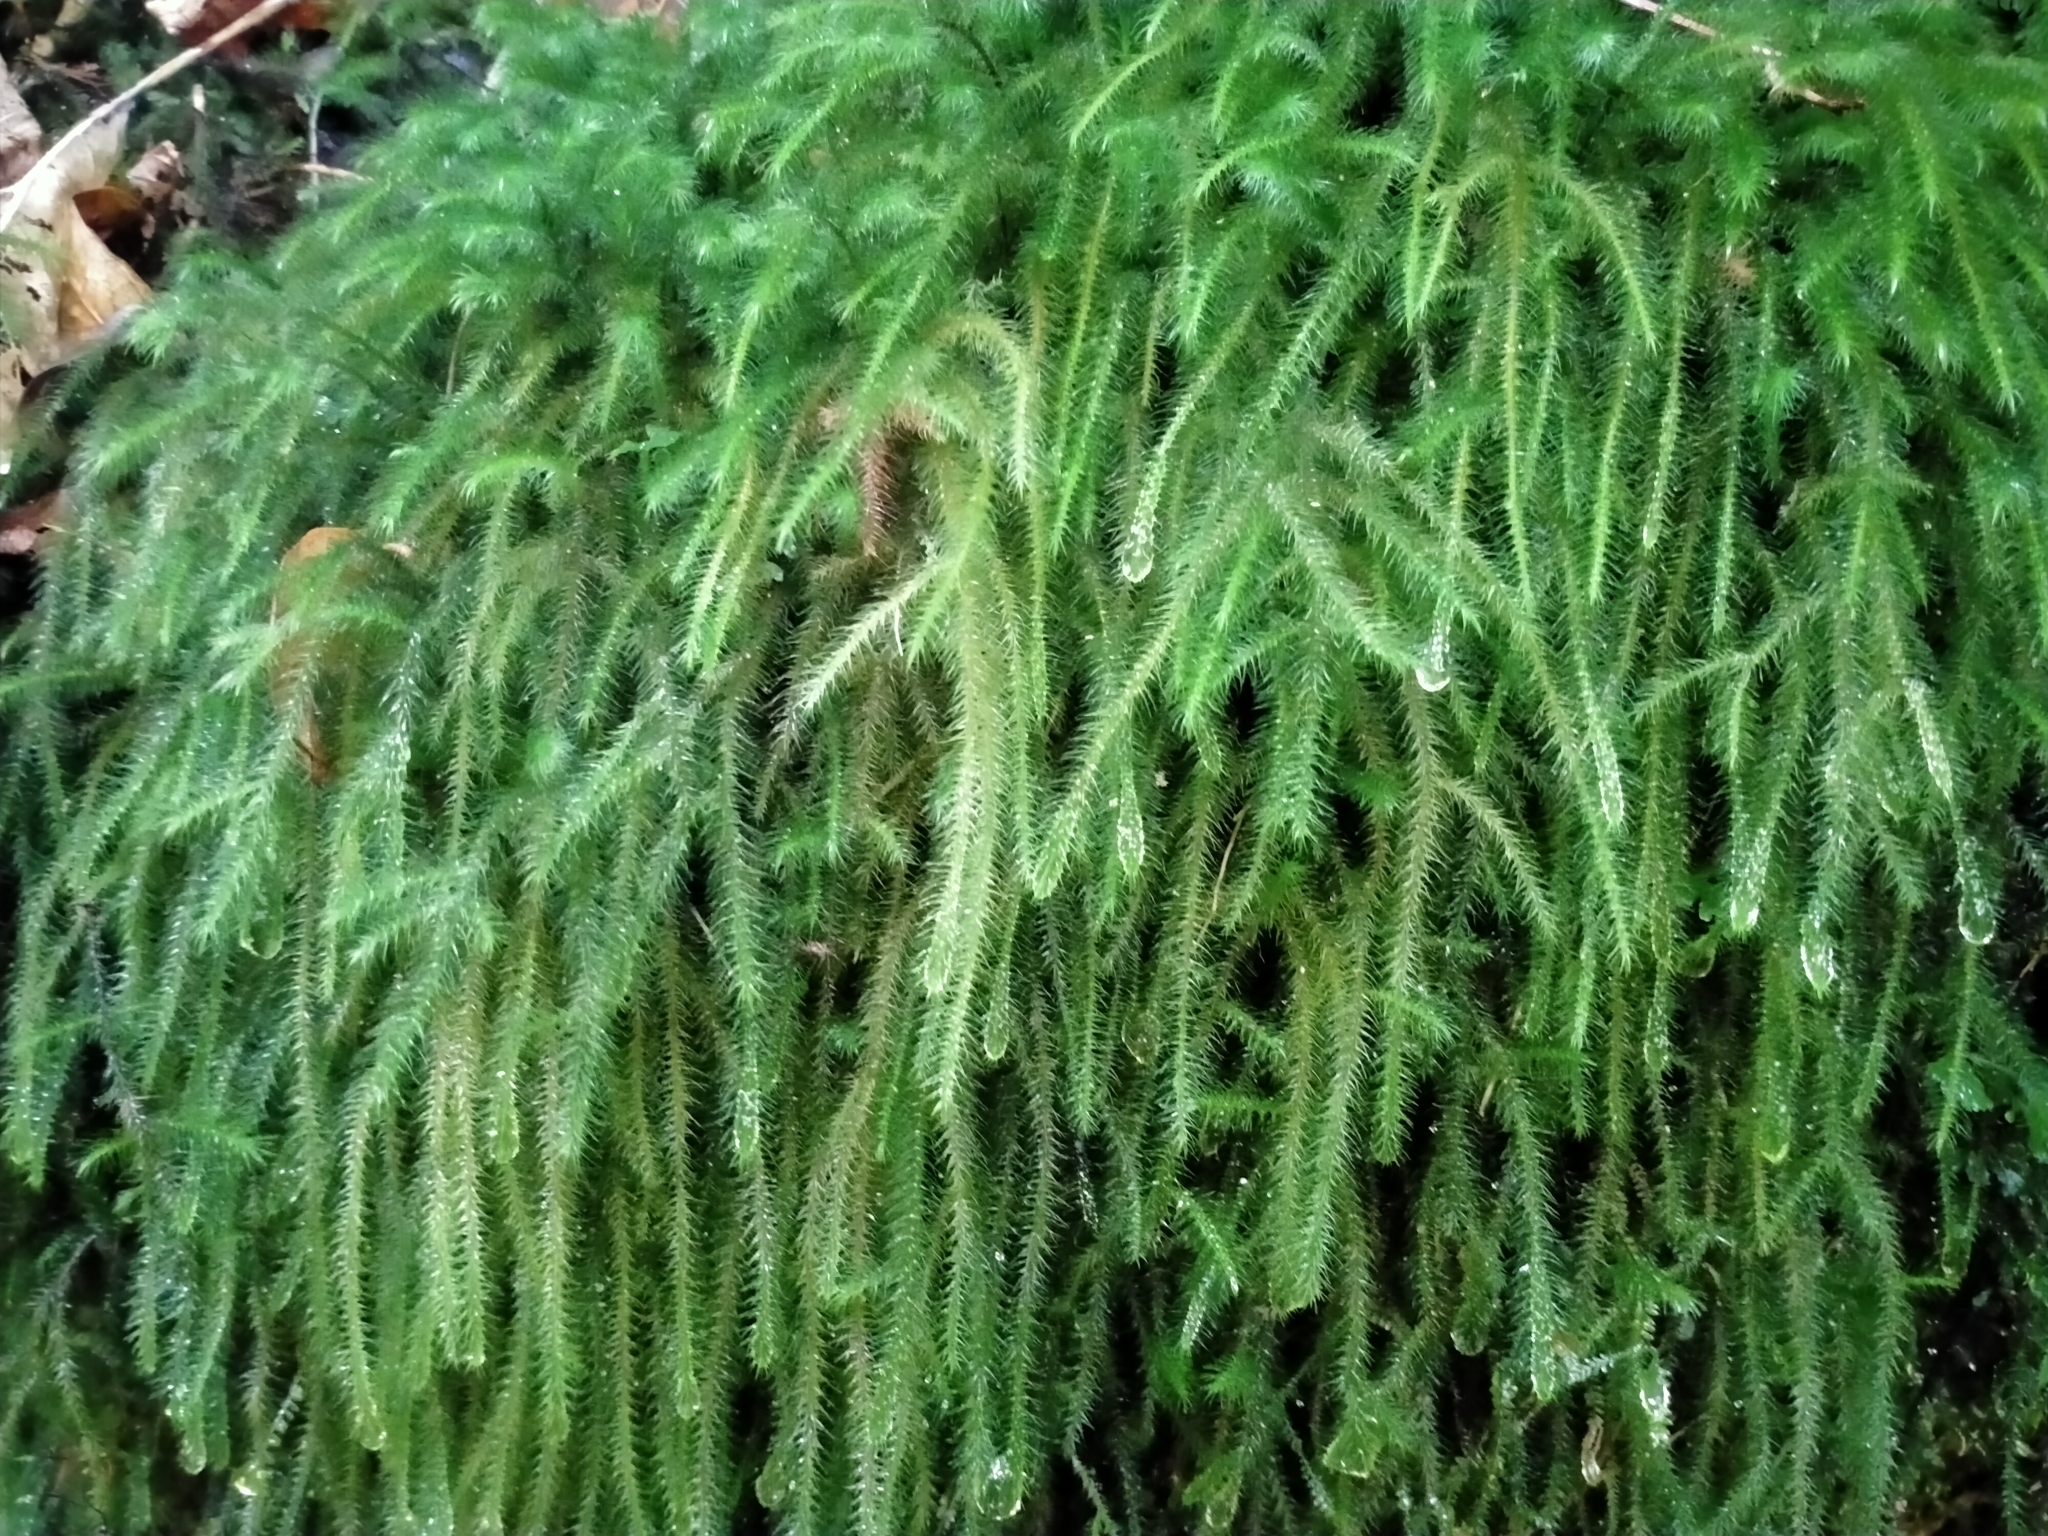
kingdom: Plantae
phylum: Bryophyta
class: Bryopsida
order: Hypnales
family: Neckeraceae
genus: Echinodiopsis
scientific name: Echinodiopsis hispida
